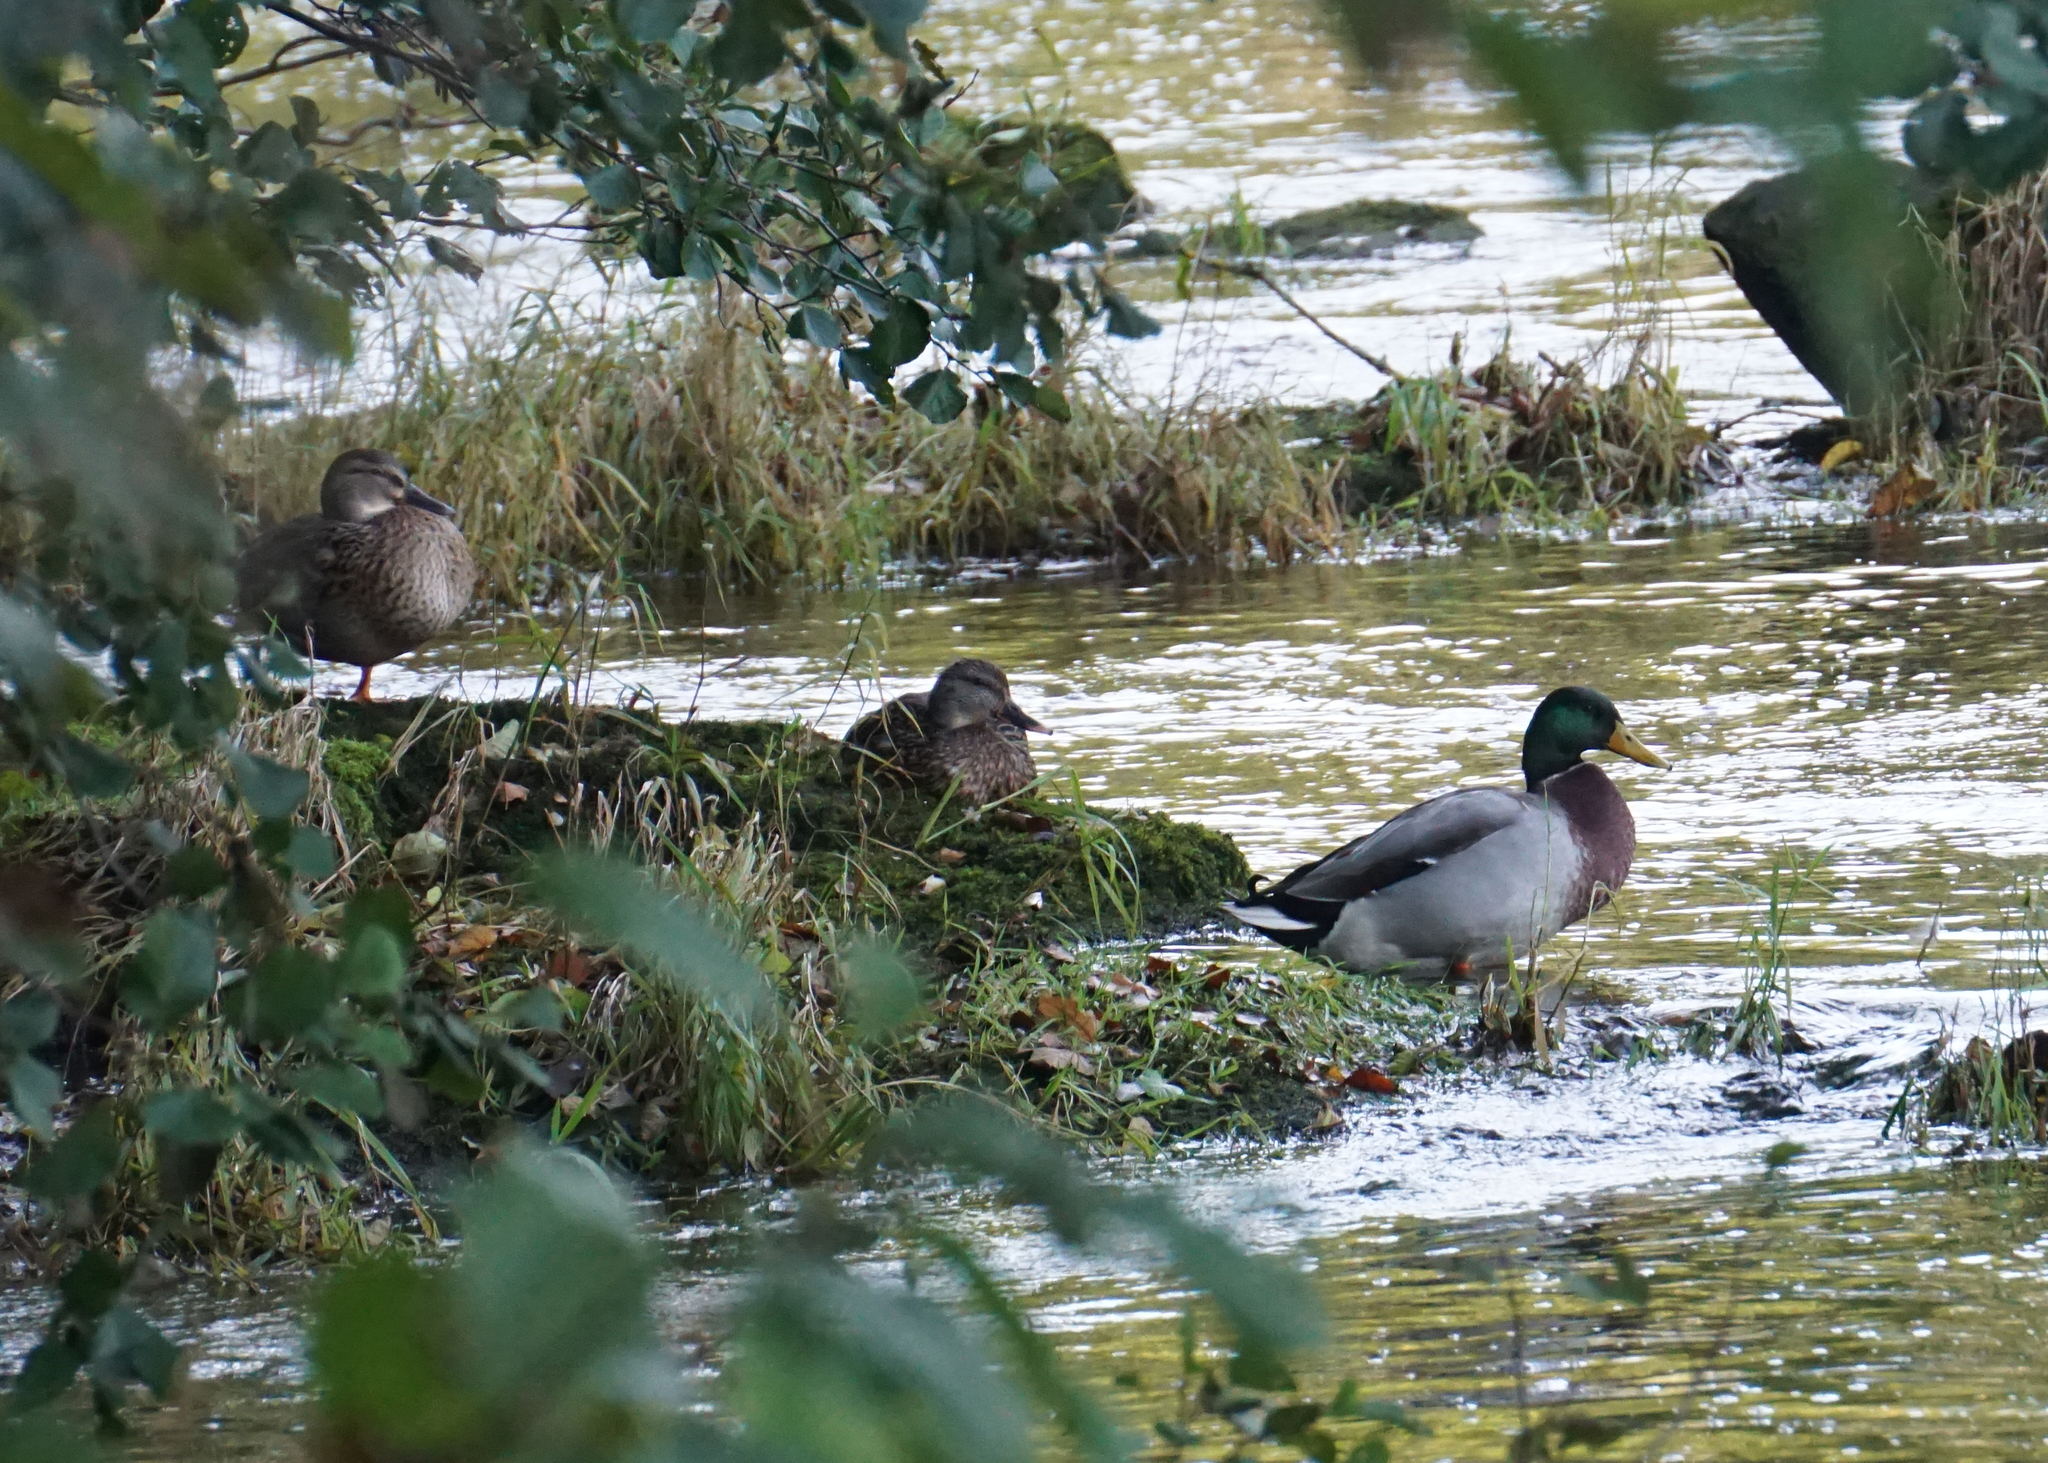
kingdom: Animalia
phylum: Chordata
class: Aves
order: Anseriformes
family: Anatidae
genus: Anas
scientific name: Anas platyrhynchos
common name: Mallard
